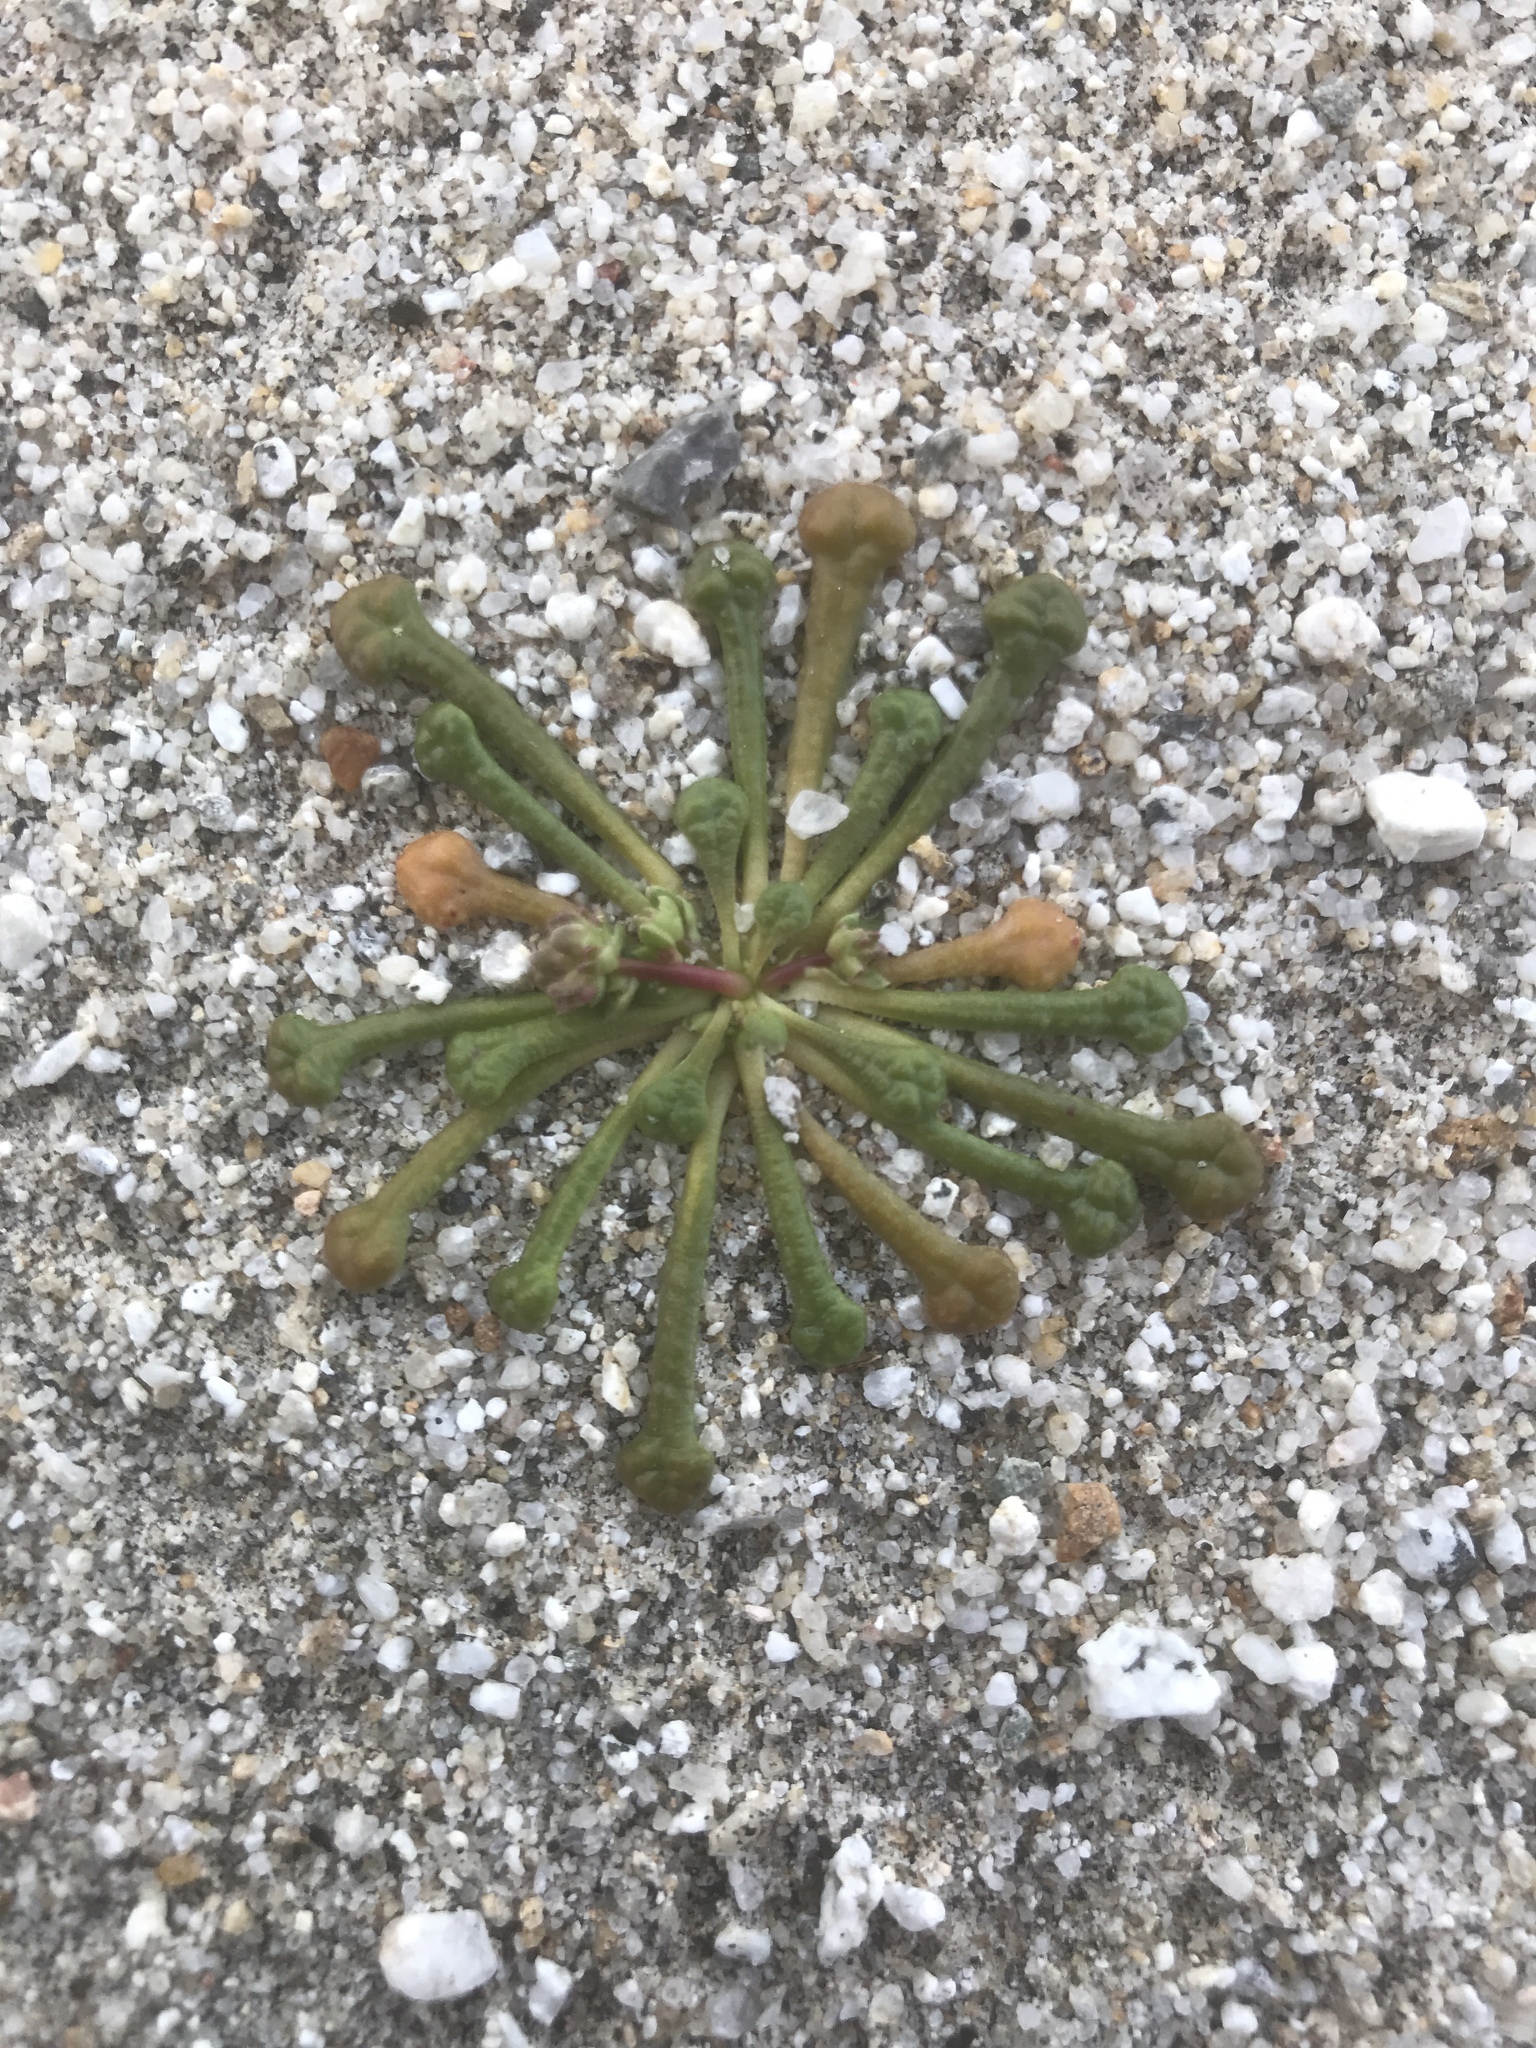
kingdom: Plantae
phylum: Tracheophyta
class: Magnoliopsida
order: Caryophyllales
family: Montiaceae
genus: Calyptridium
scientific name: Calyptridium monandrum
